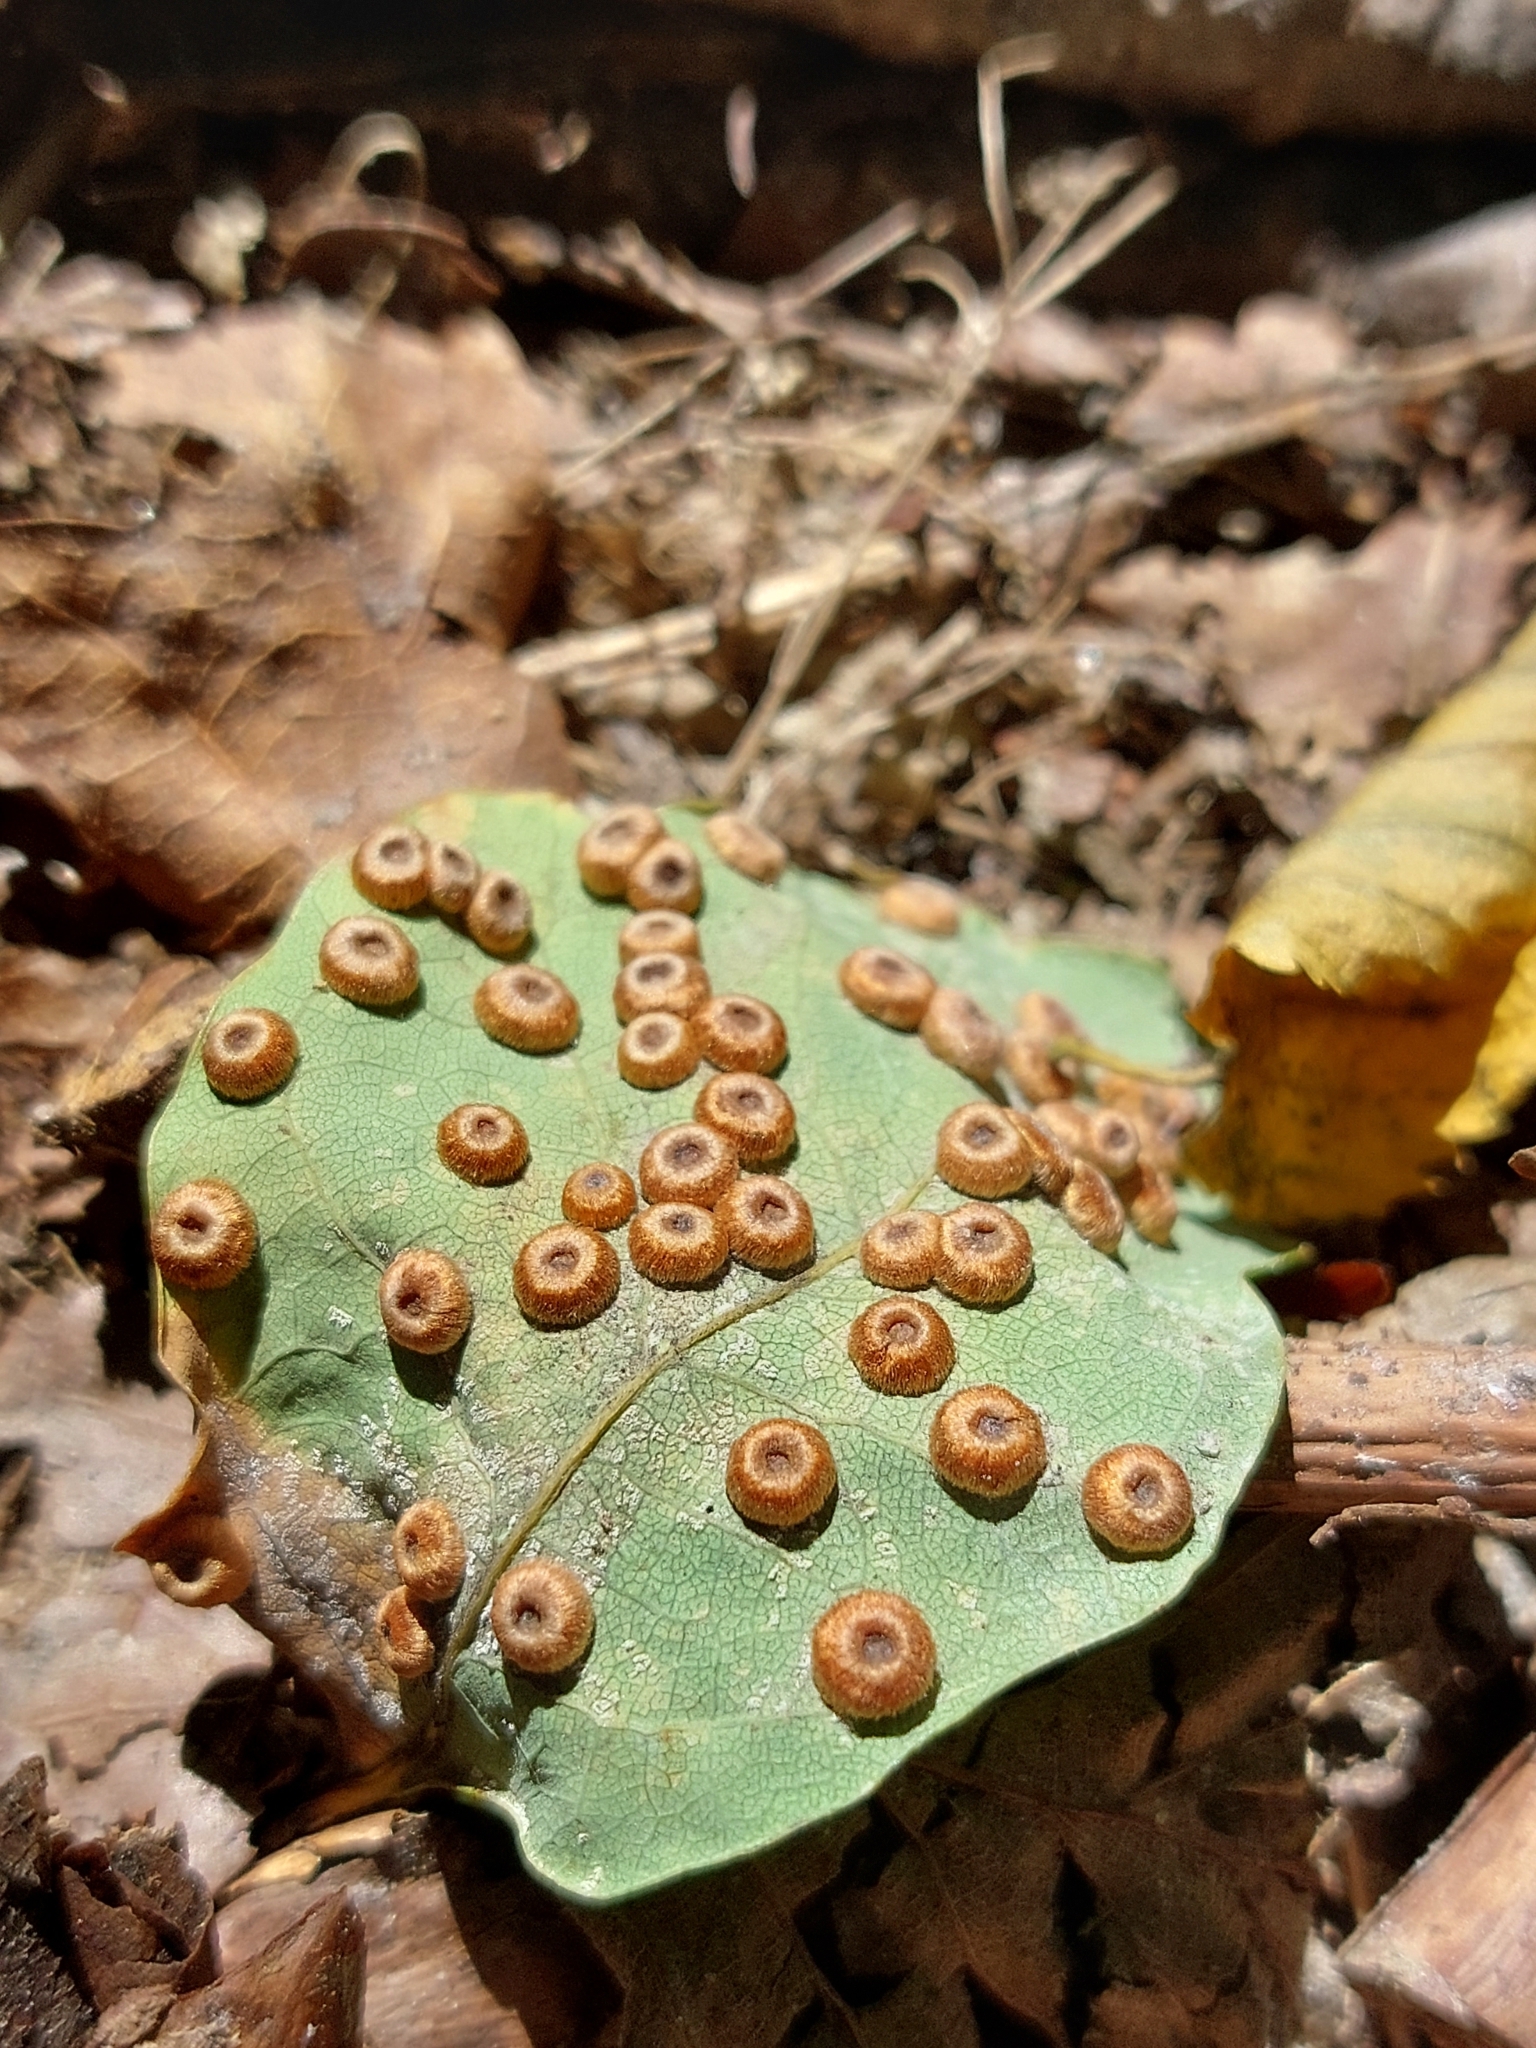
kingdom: Animalia
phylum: Arthropoda
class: Insecta
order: Hymenoptera
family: Cynipidae
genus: Neuroterus
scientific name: Neuroterus numismalis
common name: Silk-button spangle gall
